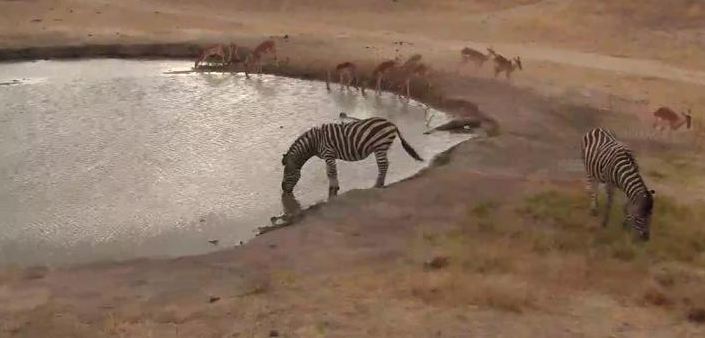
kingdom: Animalia
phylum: Chordata
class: Mammalia
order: Artiodactyla
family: Bovidae
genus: Aepyceros
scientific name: Aepyceros melampus
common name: Impala
